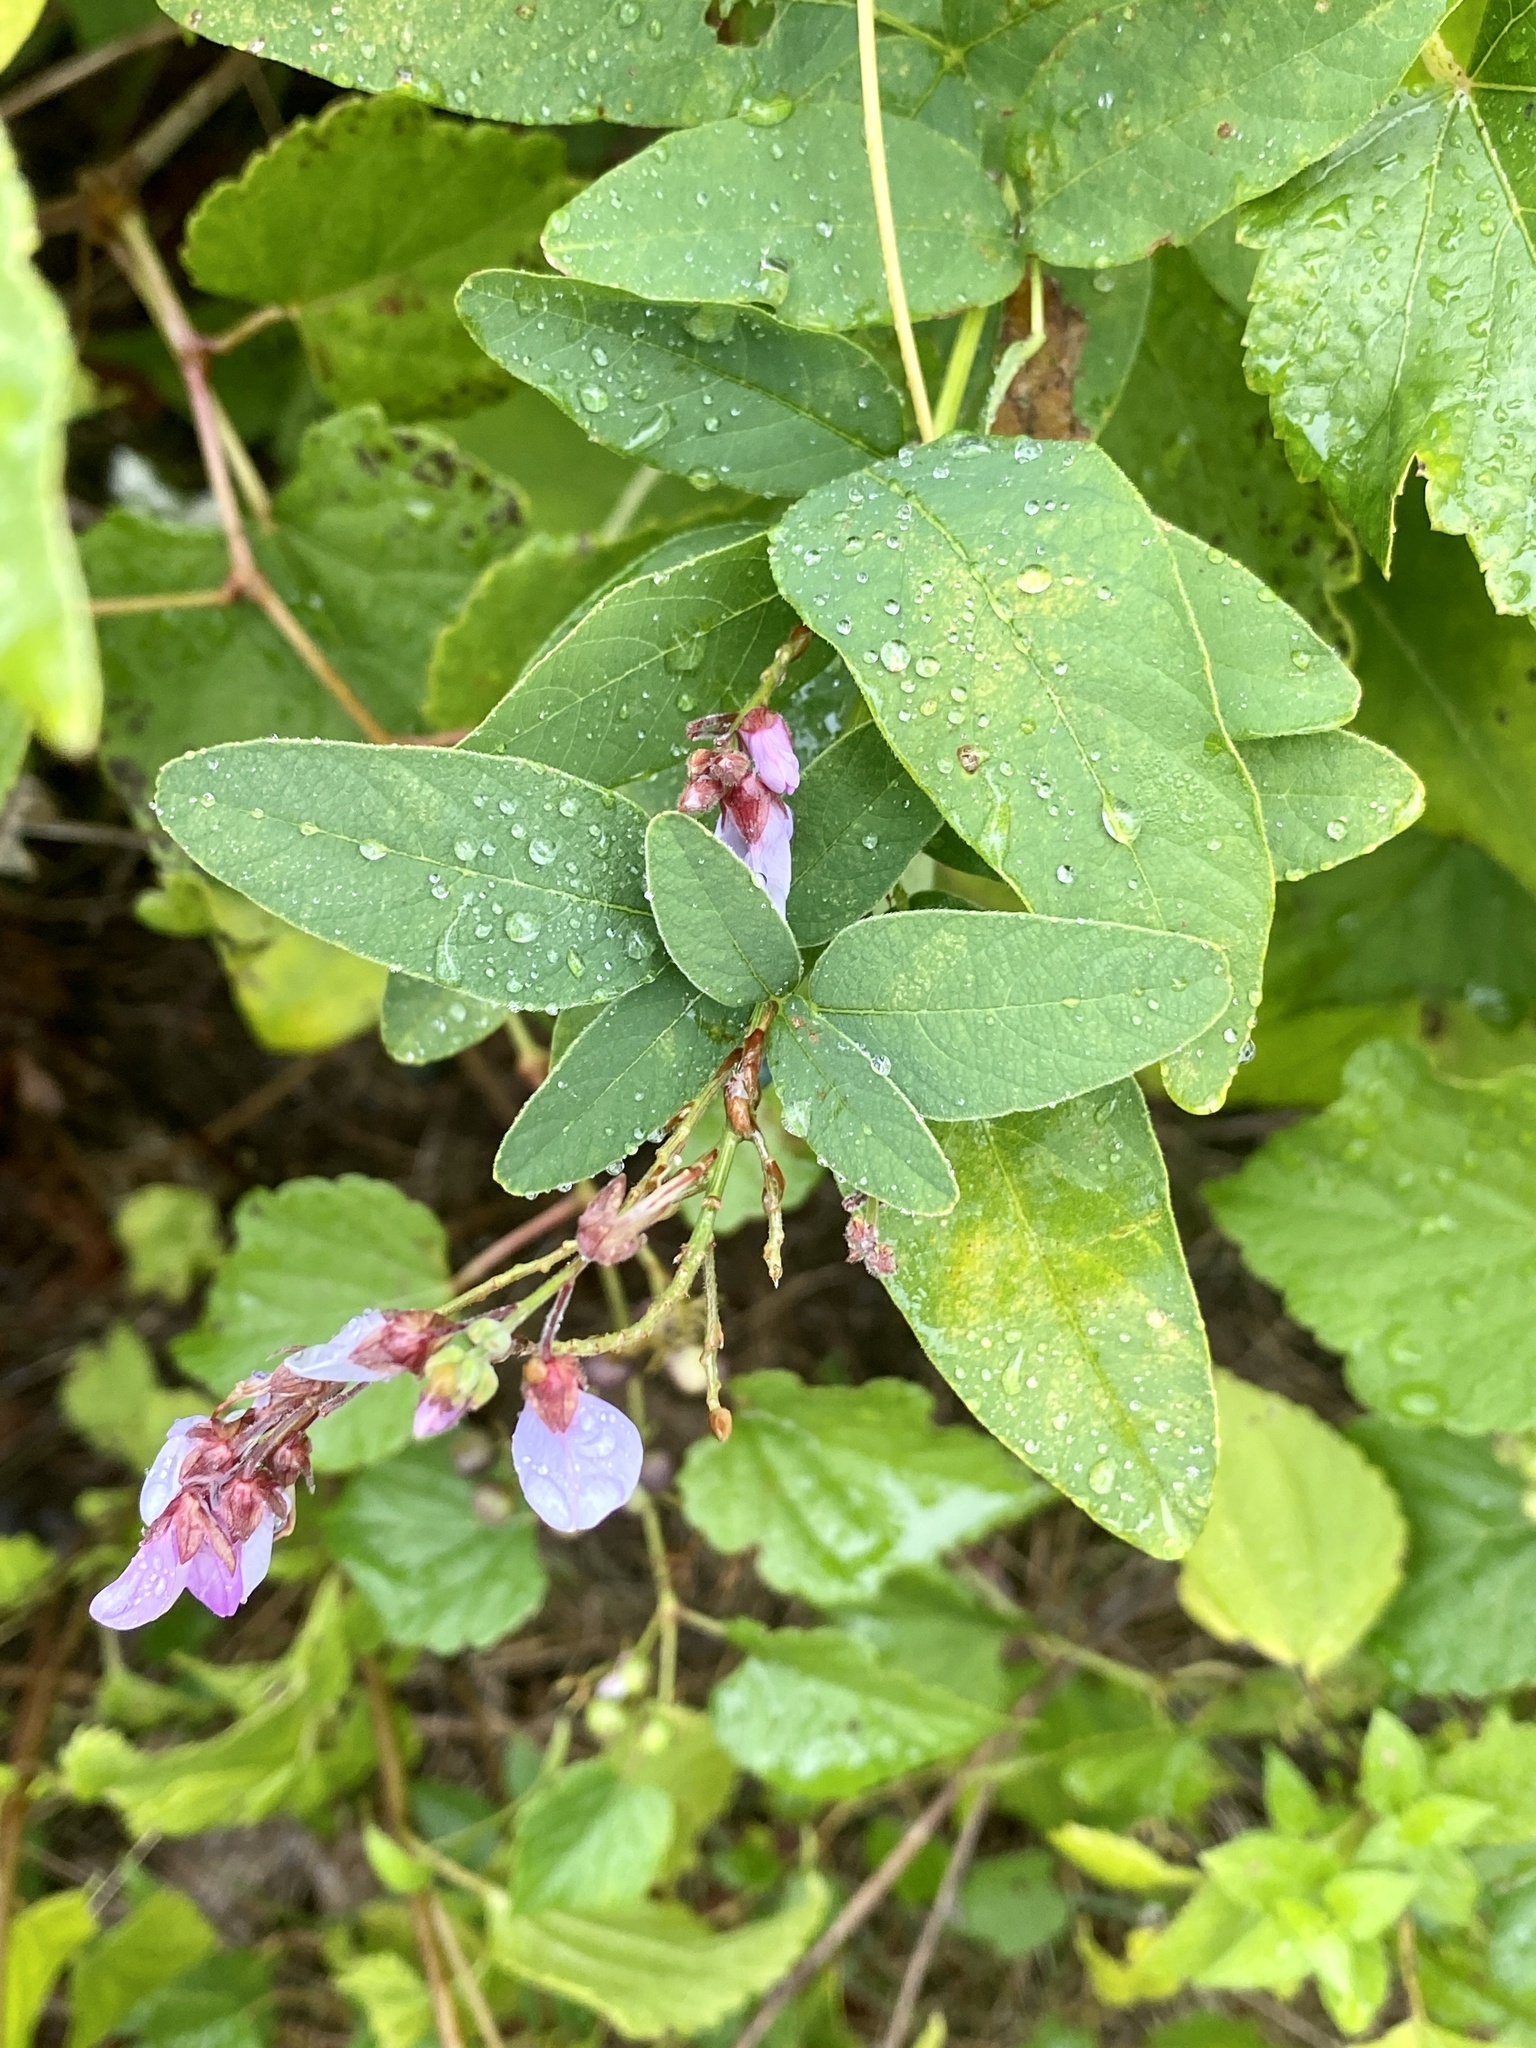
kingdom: Plantae
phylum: Tracheophyta
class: Magnoliopsida
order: Fabales
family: Fabaceae
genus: Desmodium
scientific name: Desmodium canadense
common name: Canada tick-trefoil
